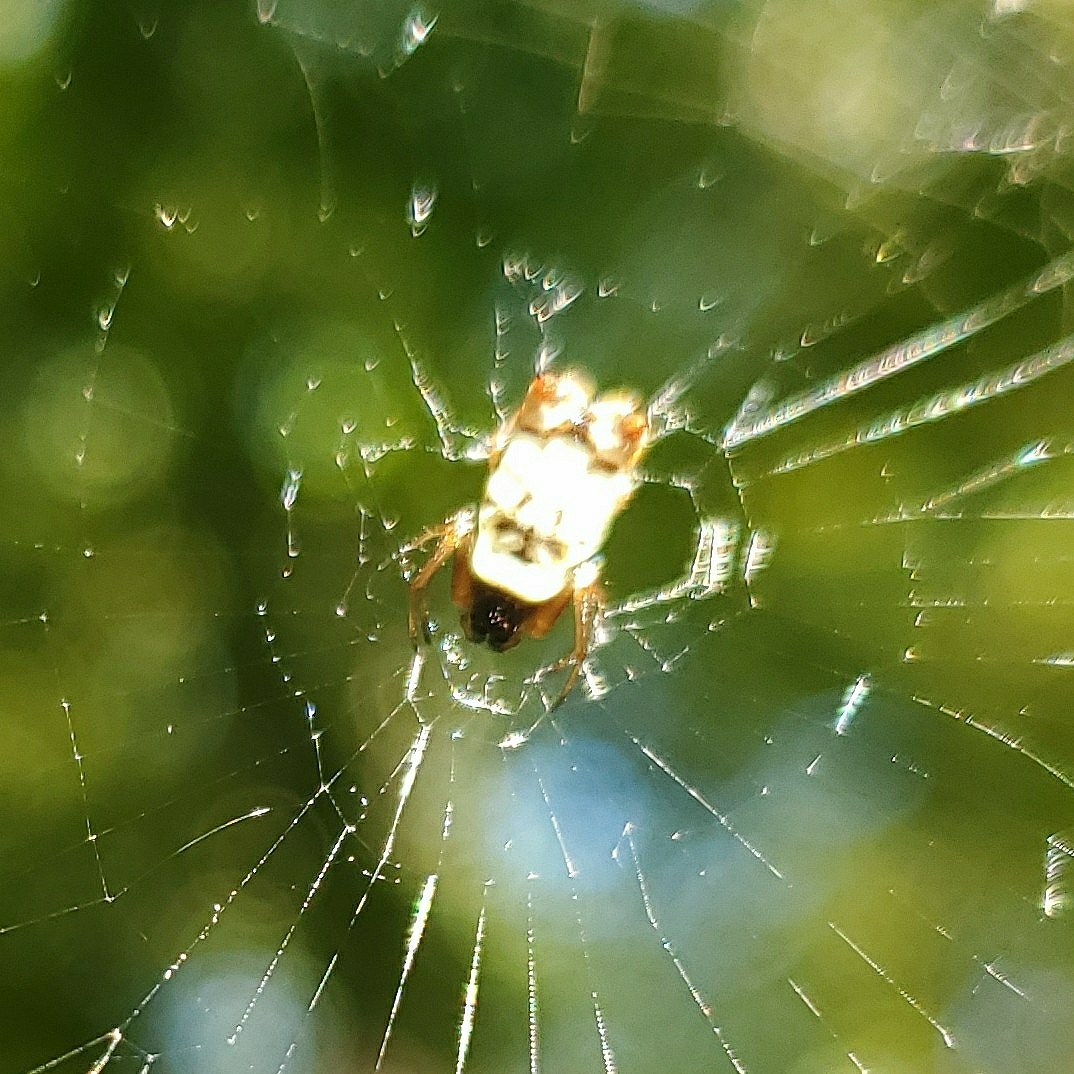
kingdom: Animalia
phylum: Arthropoda
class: Arachnida
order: Araneae
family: Araneidae
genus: Micrathena
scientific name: Micrathena mitrata
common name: Orb weavers
